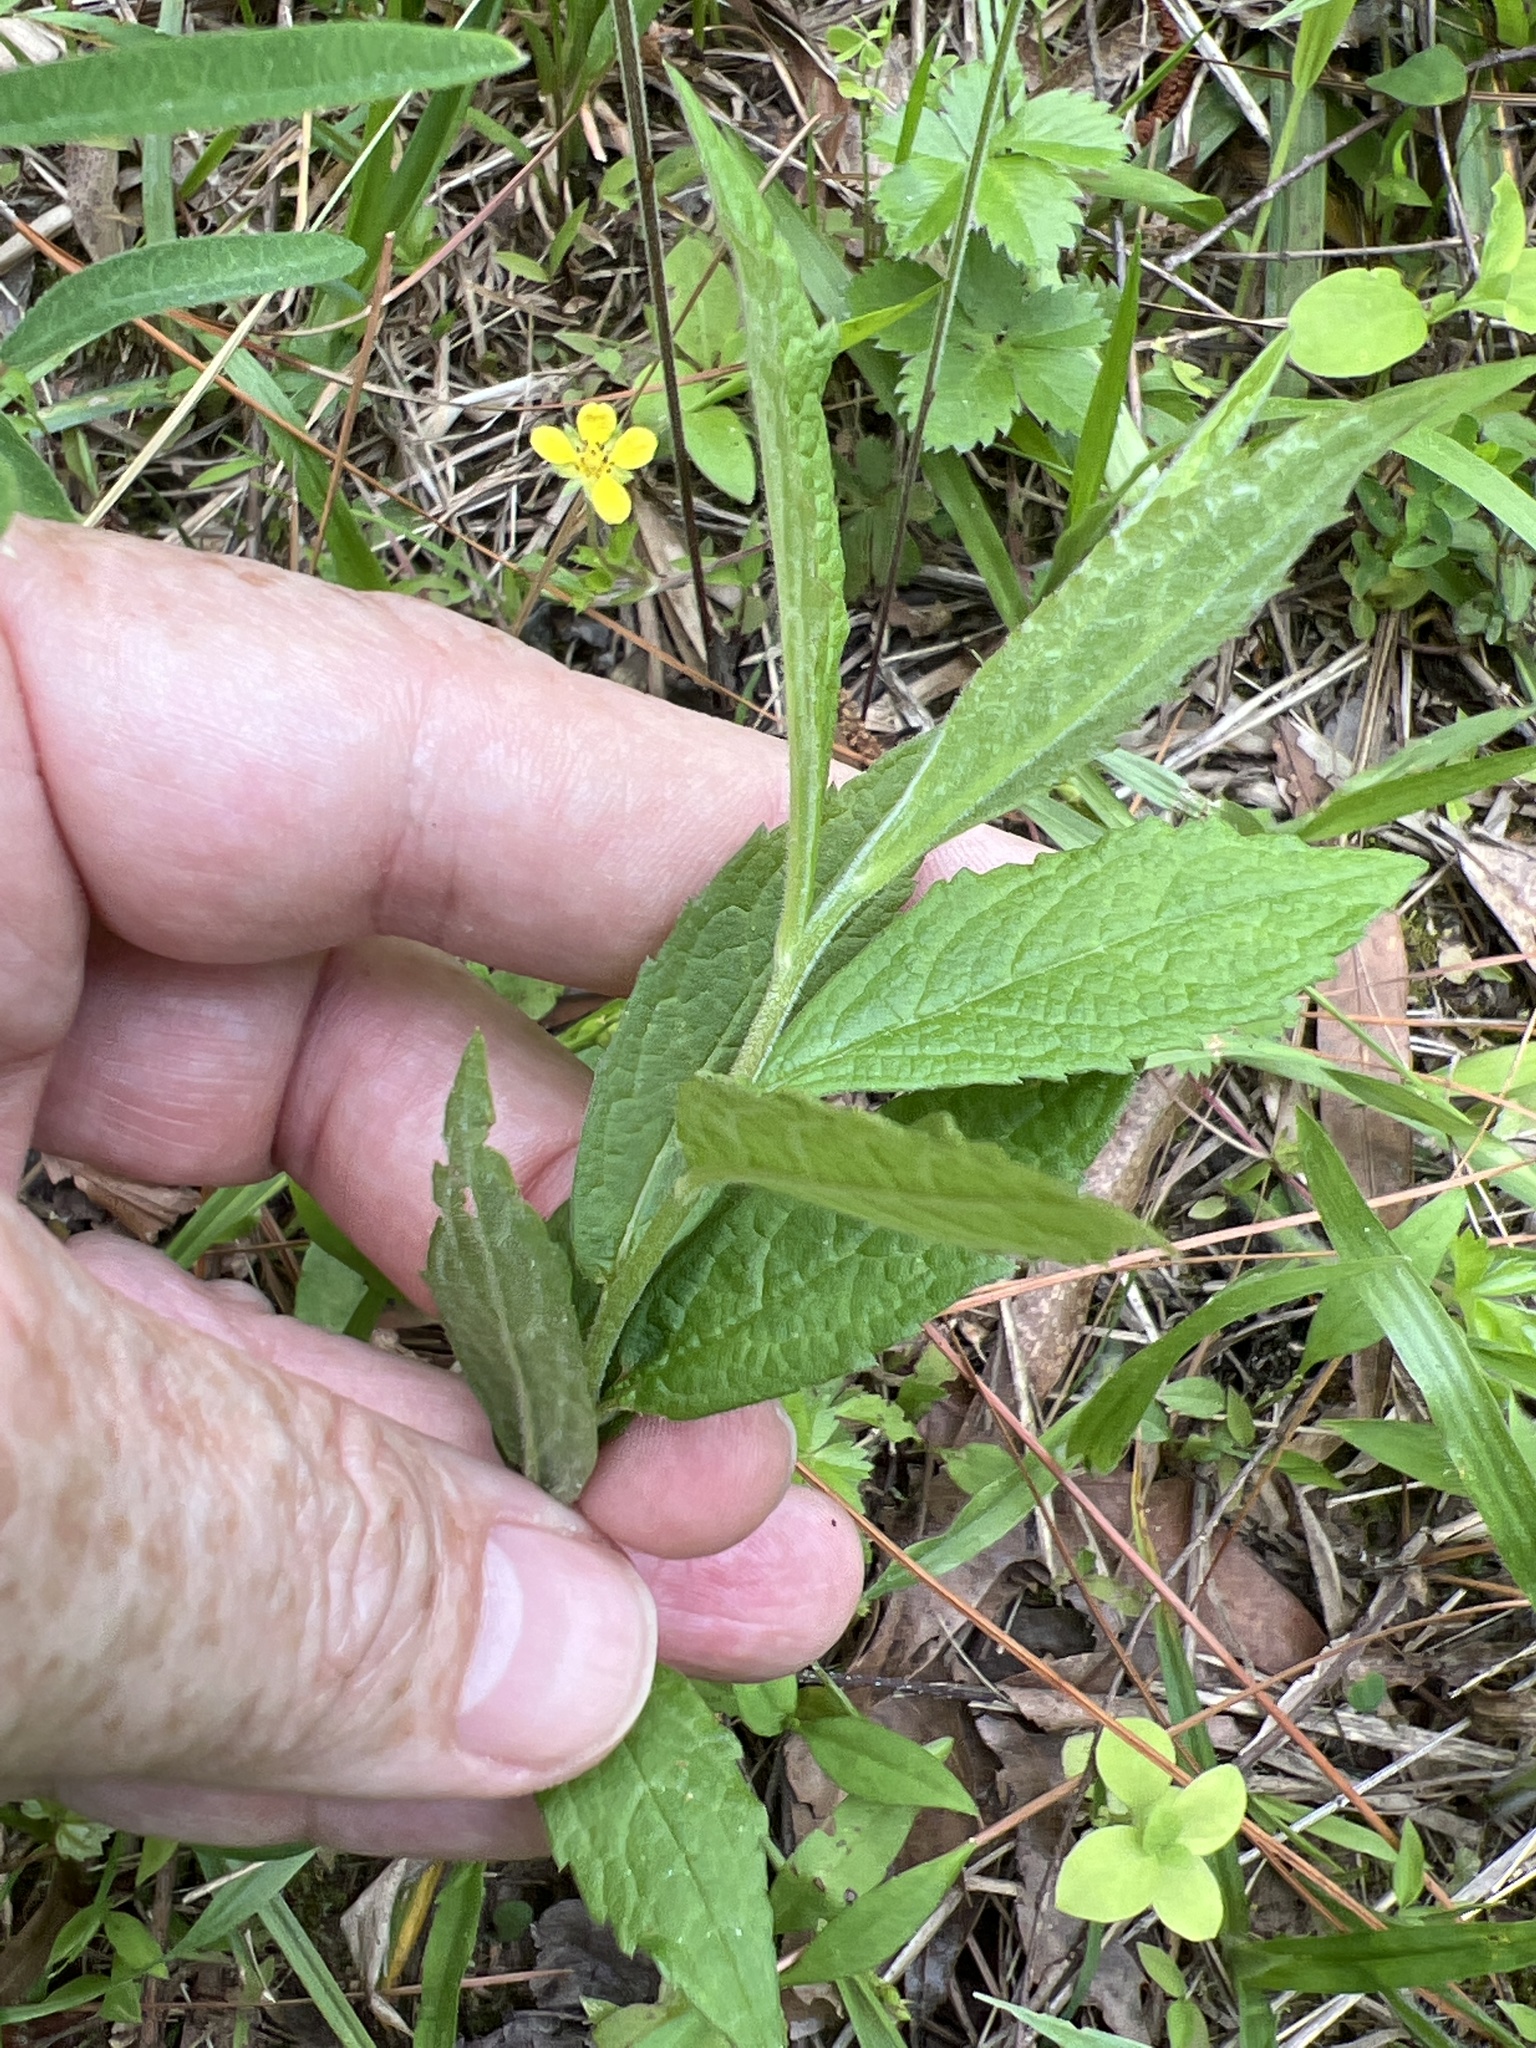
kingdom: Plantae
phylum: Tracheophyta
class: Magnoliopsida
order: Asterales
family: Asteraceae
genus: Solidago
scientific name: Solidago rugosa
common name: Rough-stemmed goldenrod
